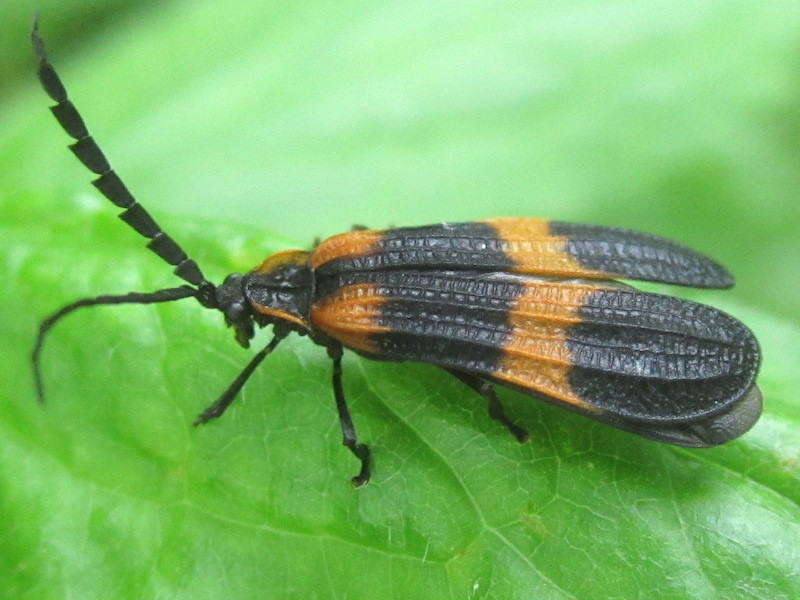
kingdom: Animalia
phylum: Arthropoda
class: Insecta
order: Coleoptera
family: Lycidae
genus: Calopteron
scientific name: Calopteron reticulatum
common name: Banded net-winged beetle
